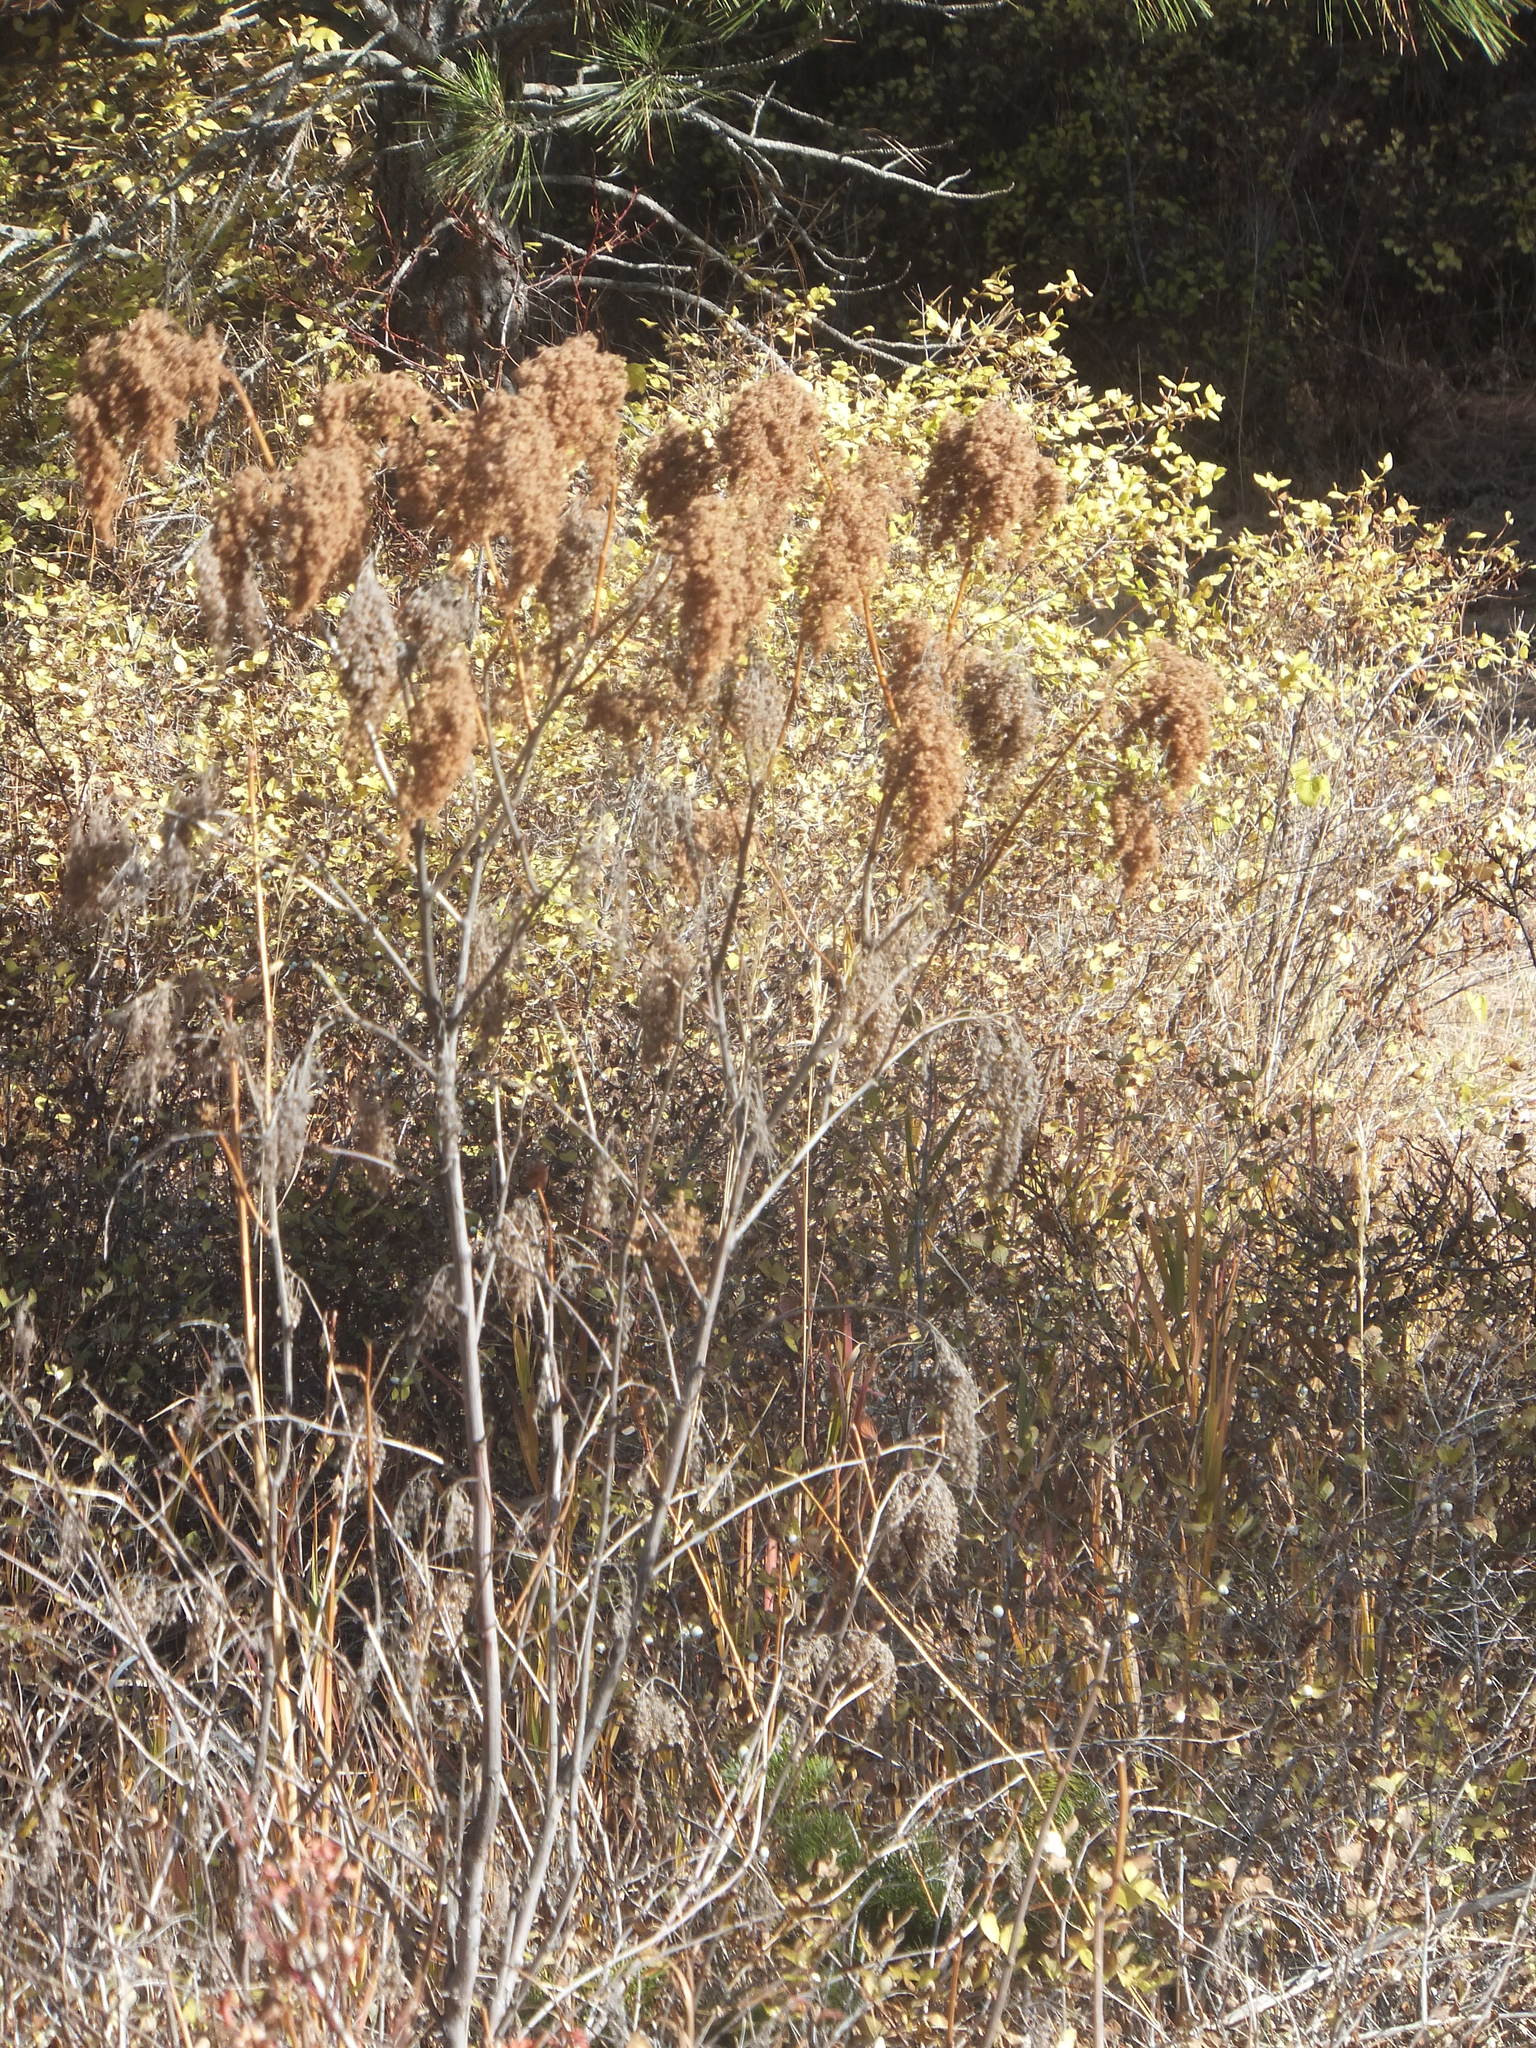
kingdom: Plantae
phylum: Tracheophyta
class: Magnoliopsida
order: Rosales
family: Rosaceae
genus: Holodiscus
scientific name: Holodiscus discolor
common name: Oceanspray
